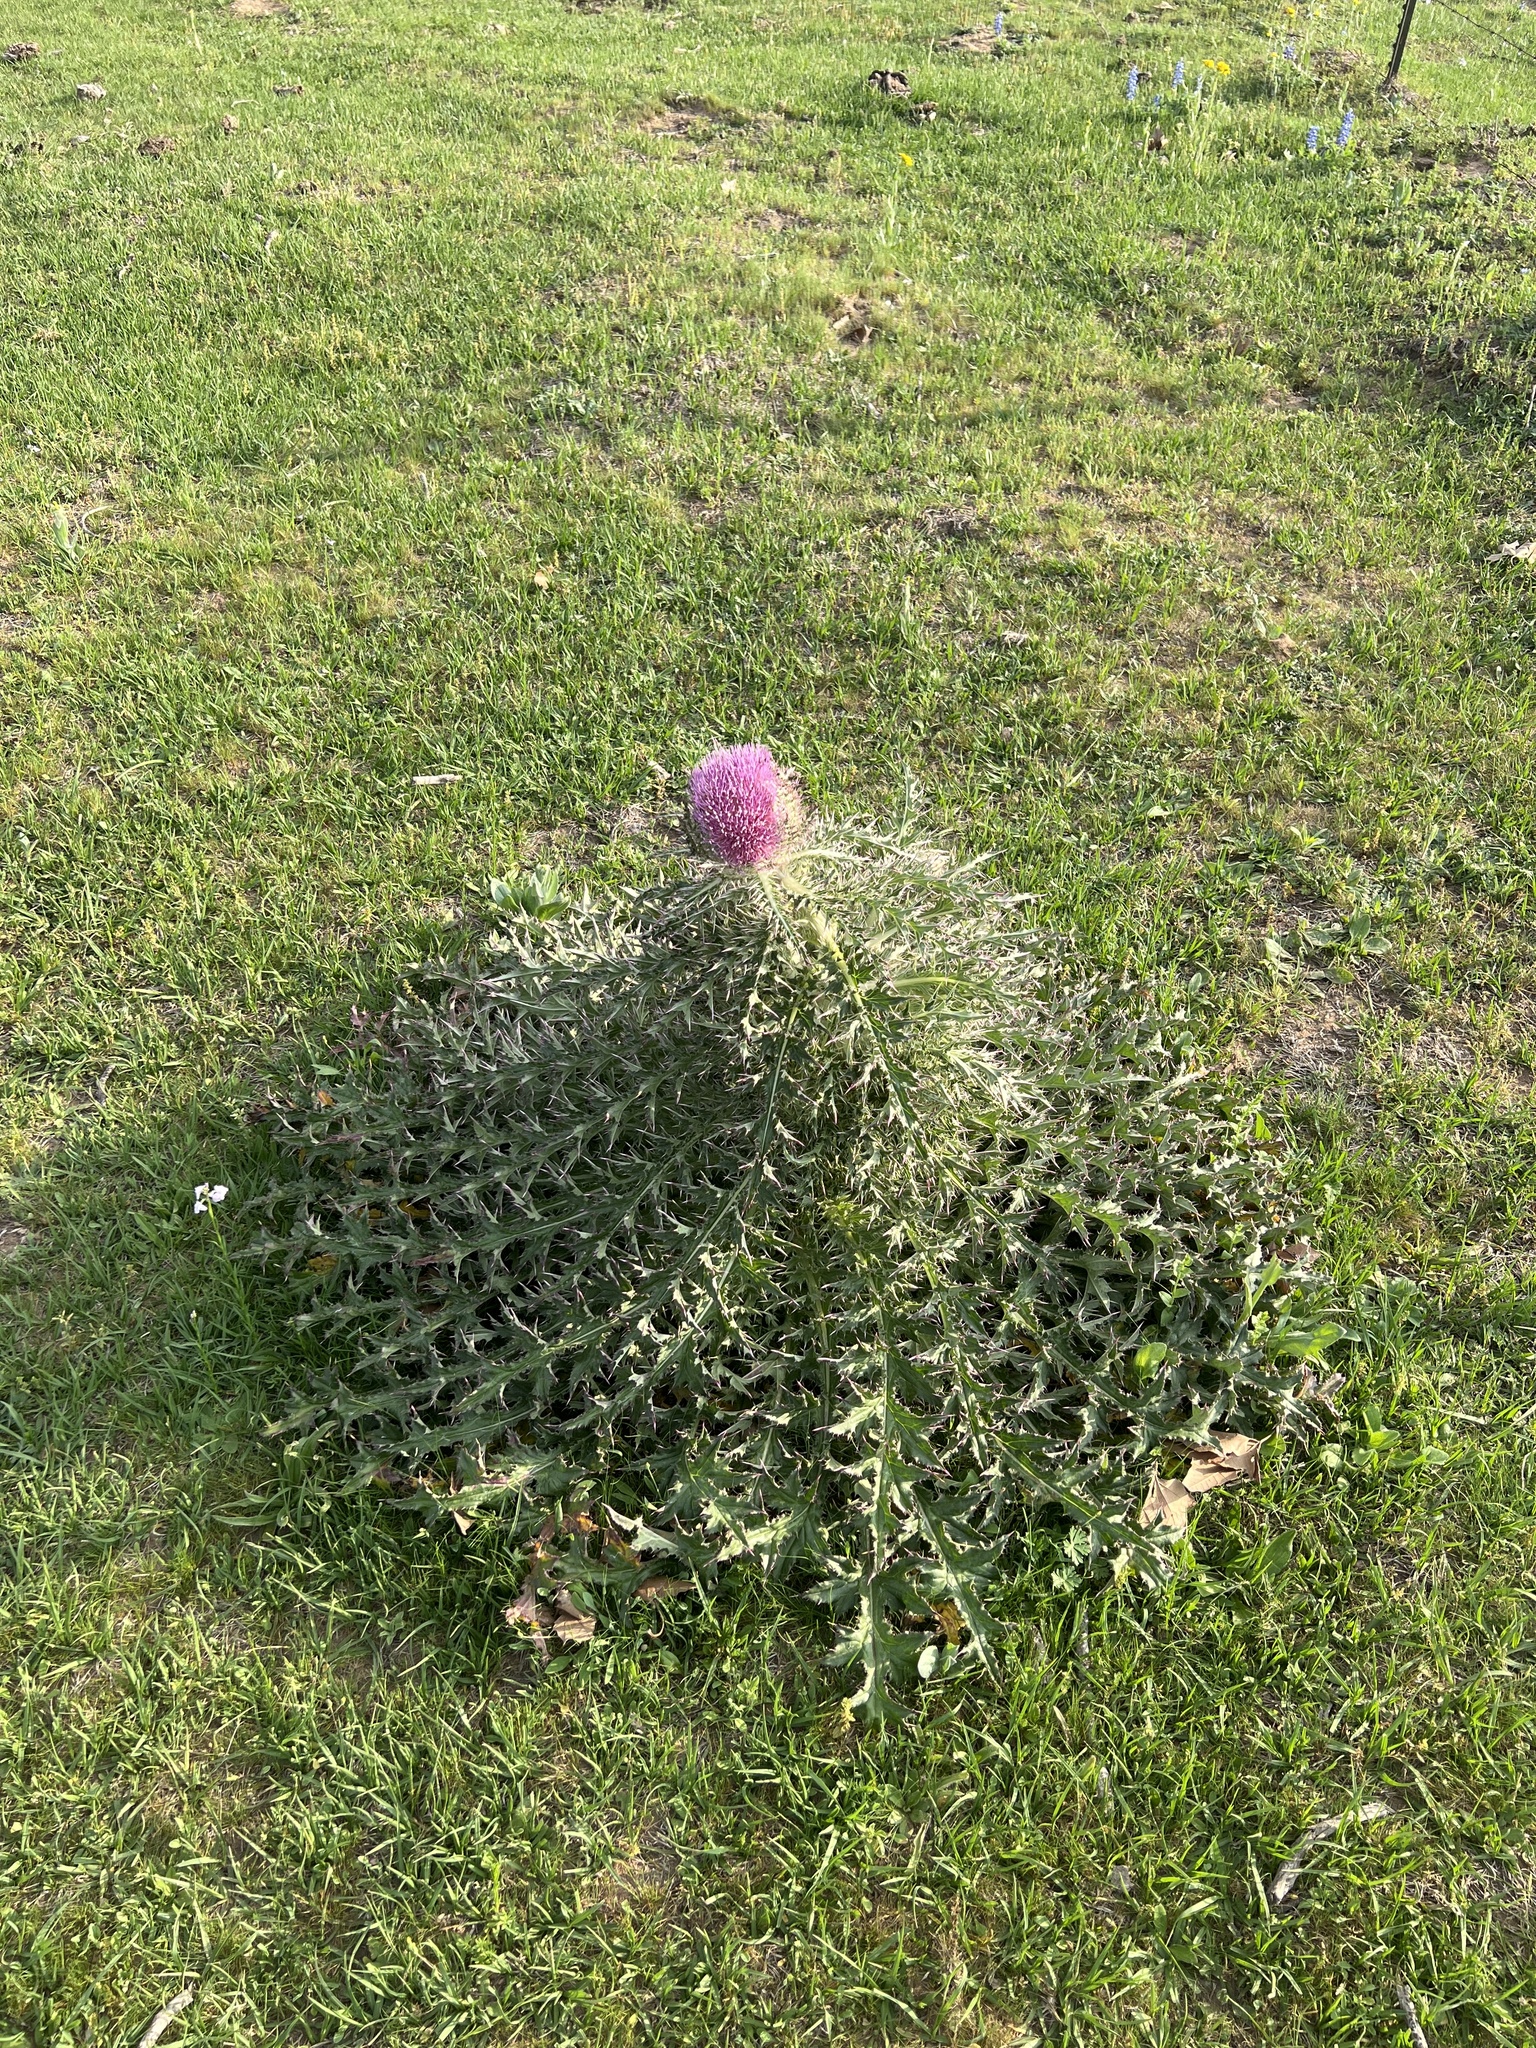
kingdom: Plantae
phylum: Tracheophyta
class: Magnoliopsida
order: Asterales
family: Asteraceae
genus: Cirsium
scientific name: Cirsium horridulum
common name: Bristly thistle
